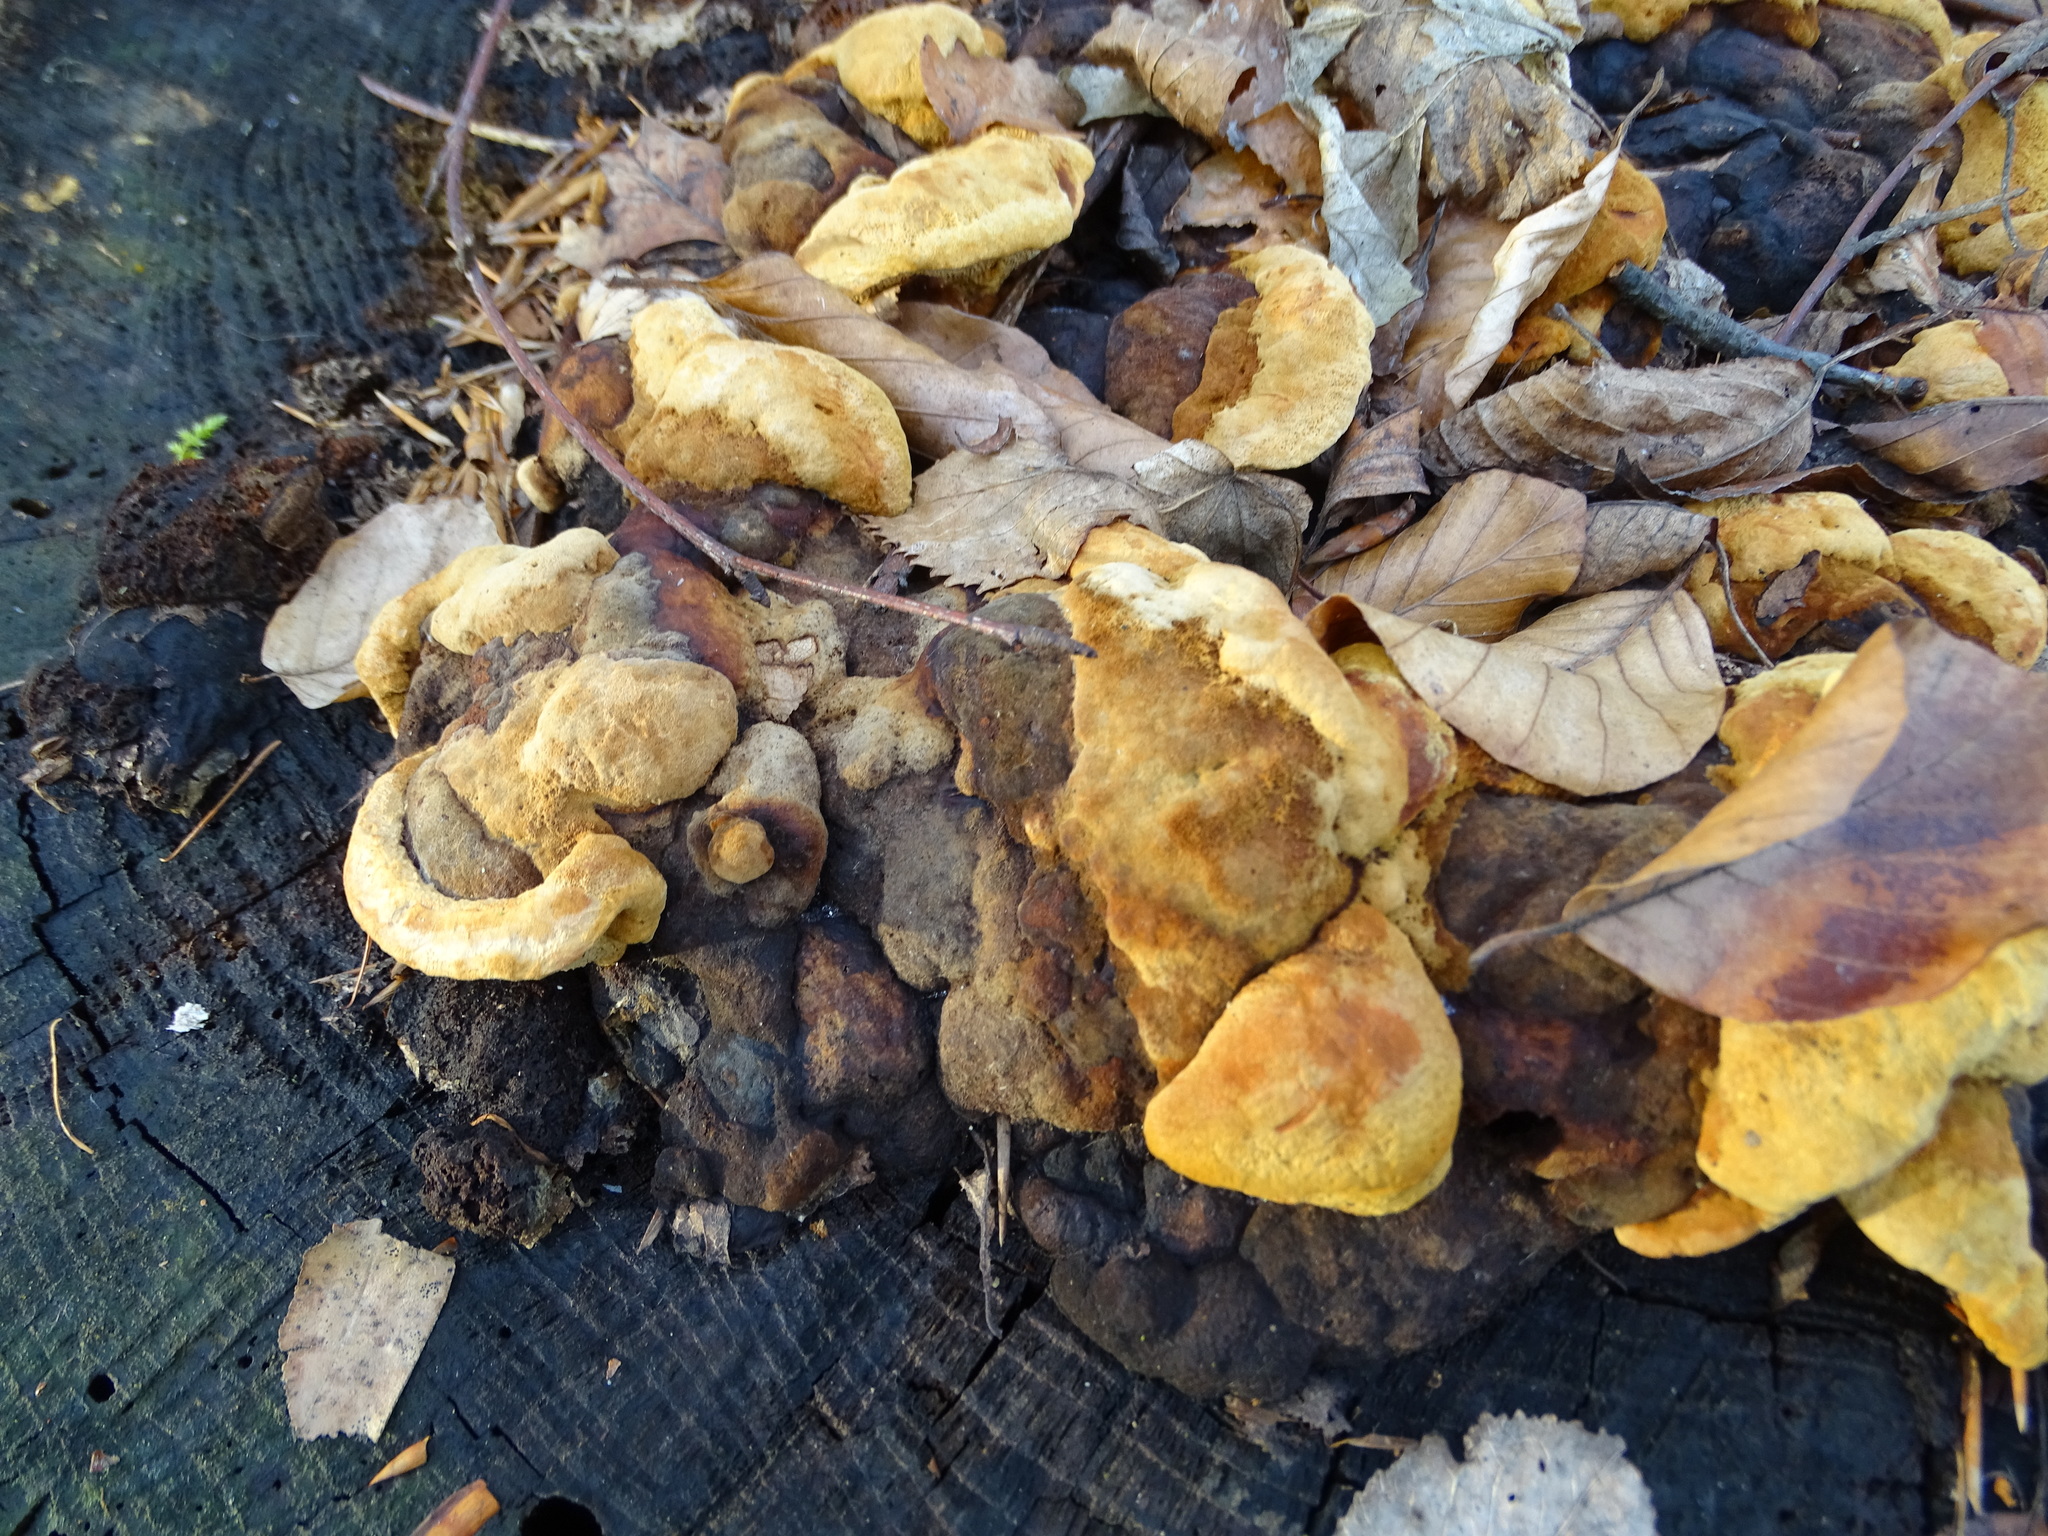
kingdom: Fungi
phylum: Basidiomycota
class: Agaricomycetes
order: Gloeophyllales
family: Gloeophyllaceae
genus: Gloeophyllum
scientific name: Gloeophyllum odoratum
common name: Anise mazegill
